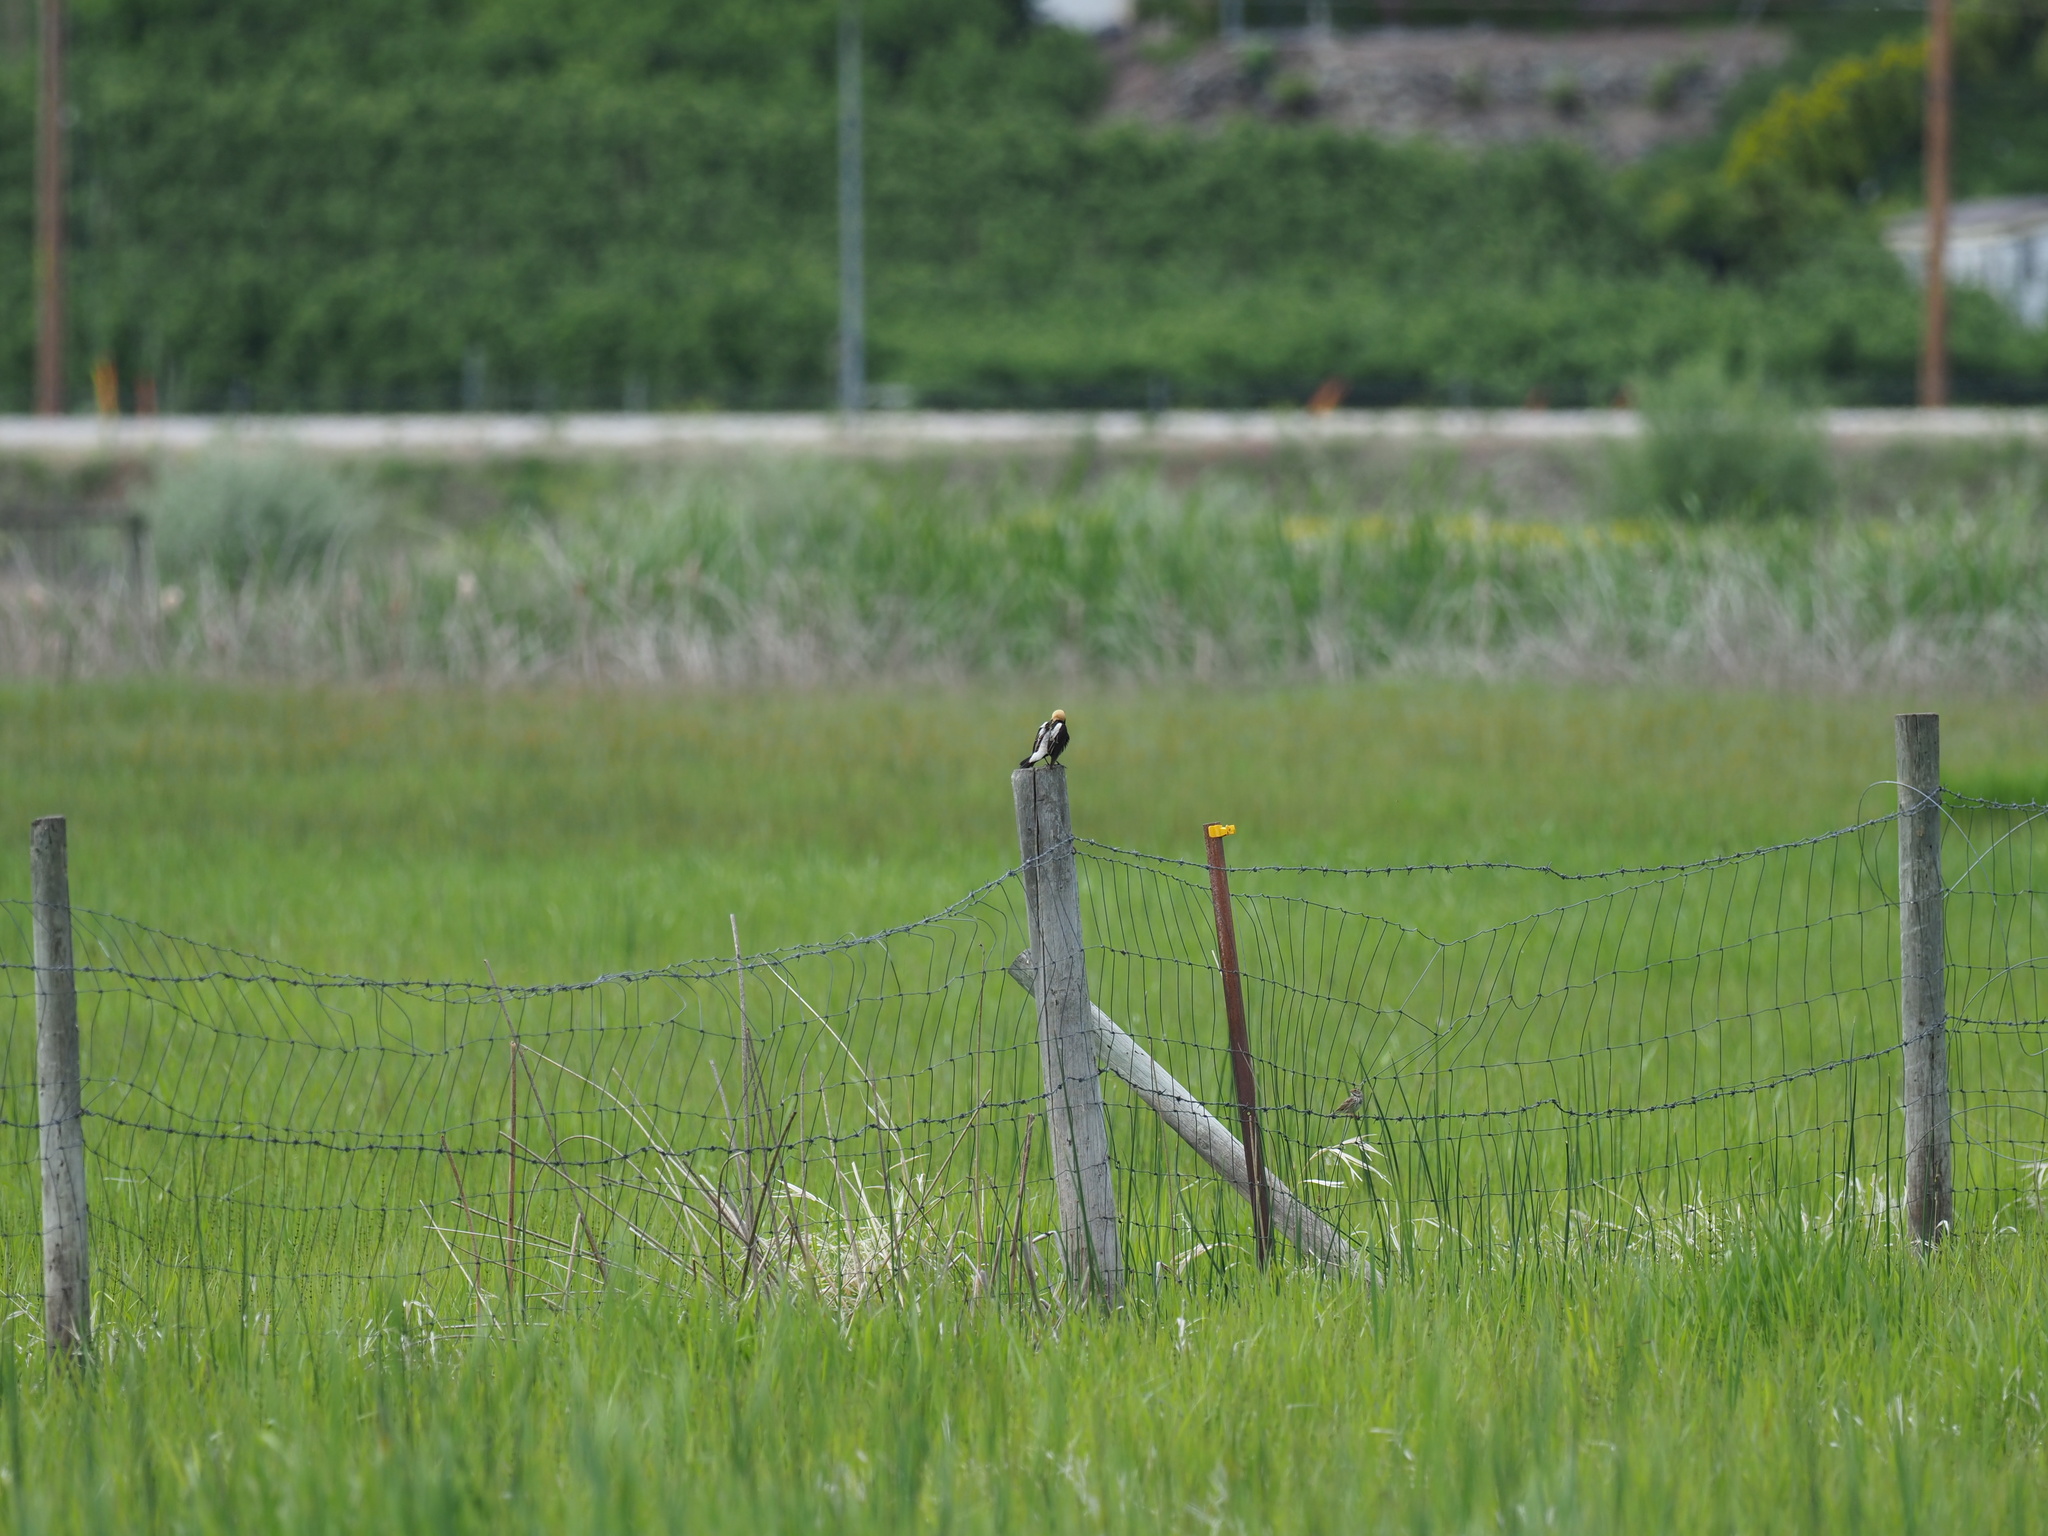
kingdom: Animalia
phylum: Chordata
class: Aves
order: Passeriformes
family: Icteridae
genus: Dolichonyx
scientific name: Dolichonyx oryzivorus
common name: Bobolink
